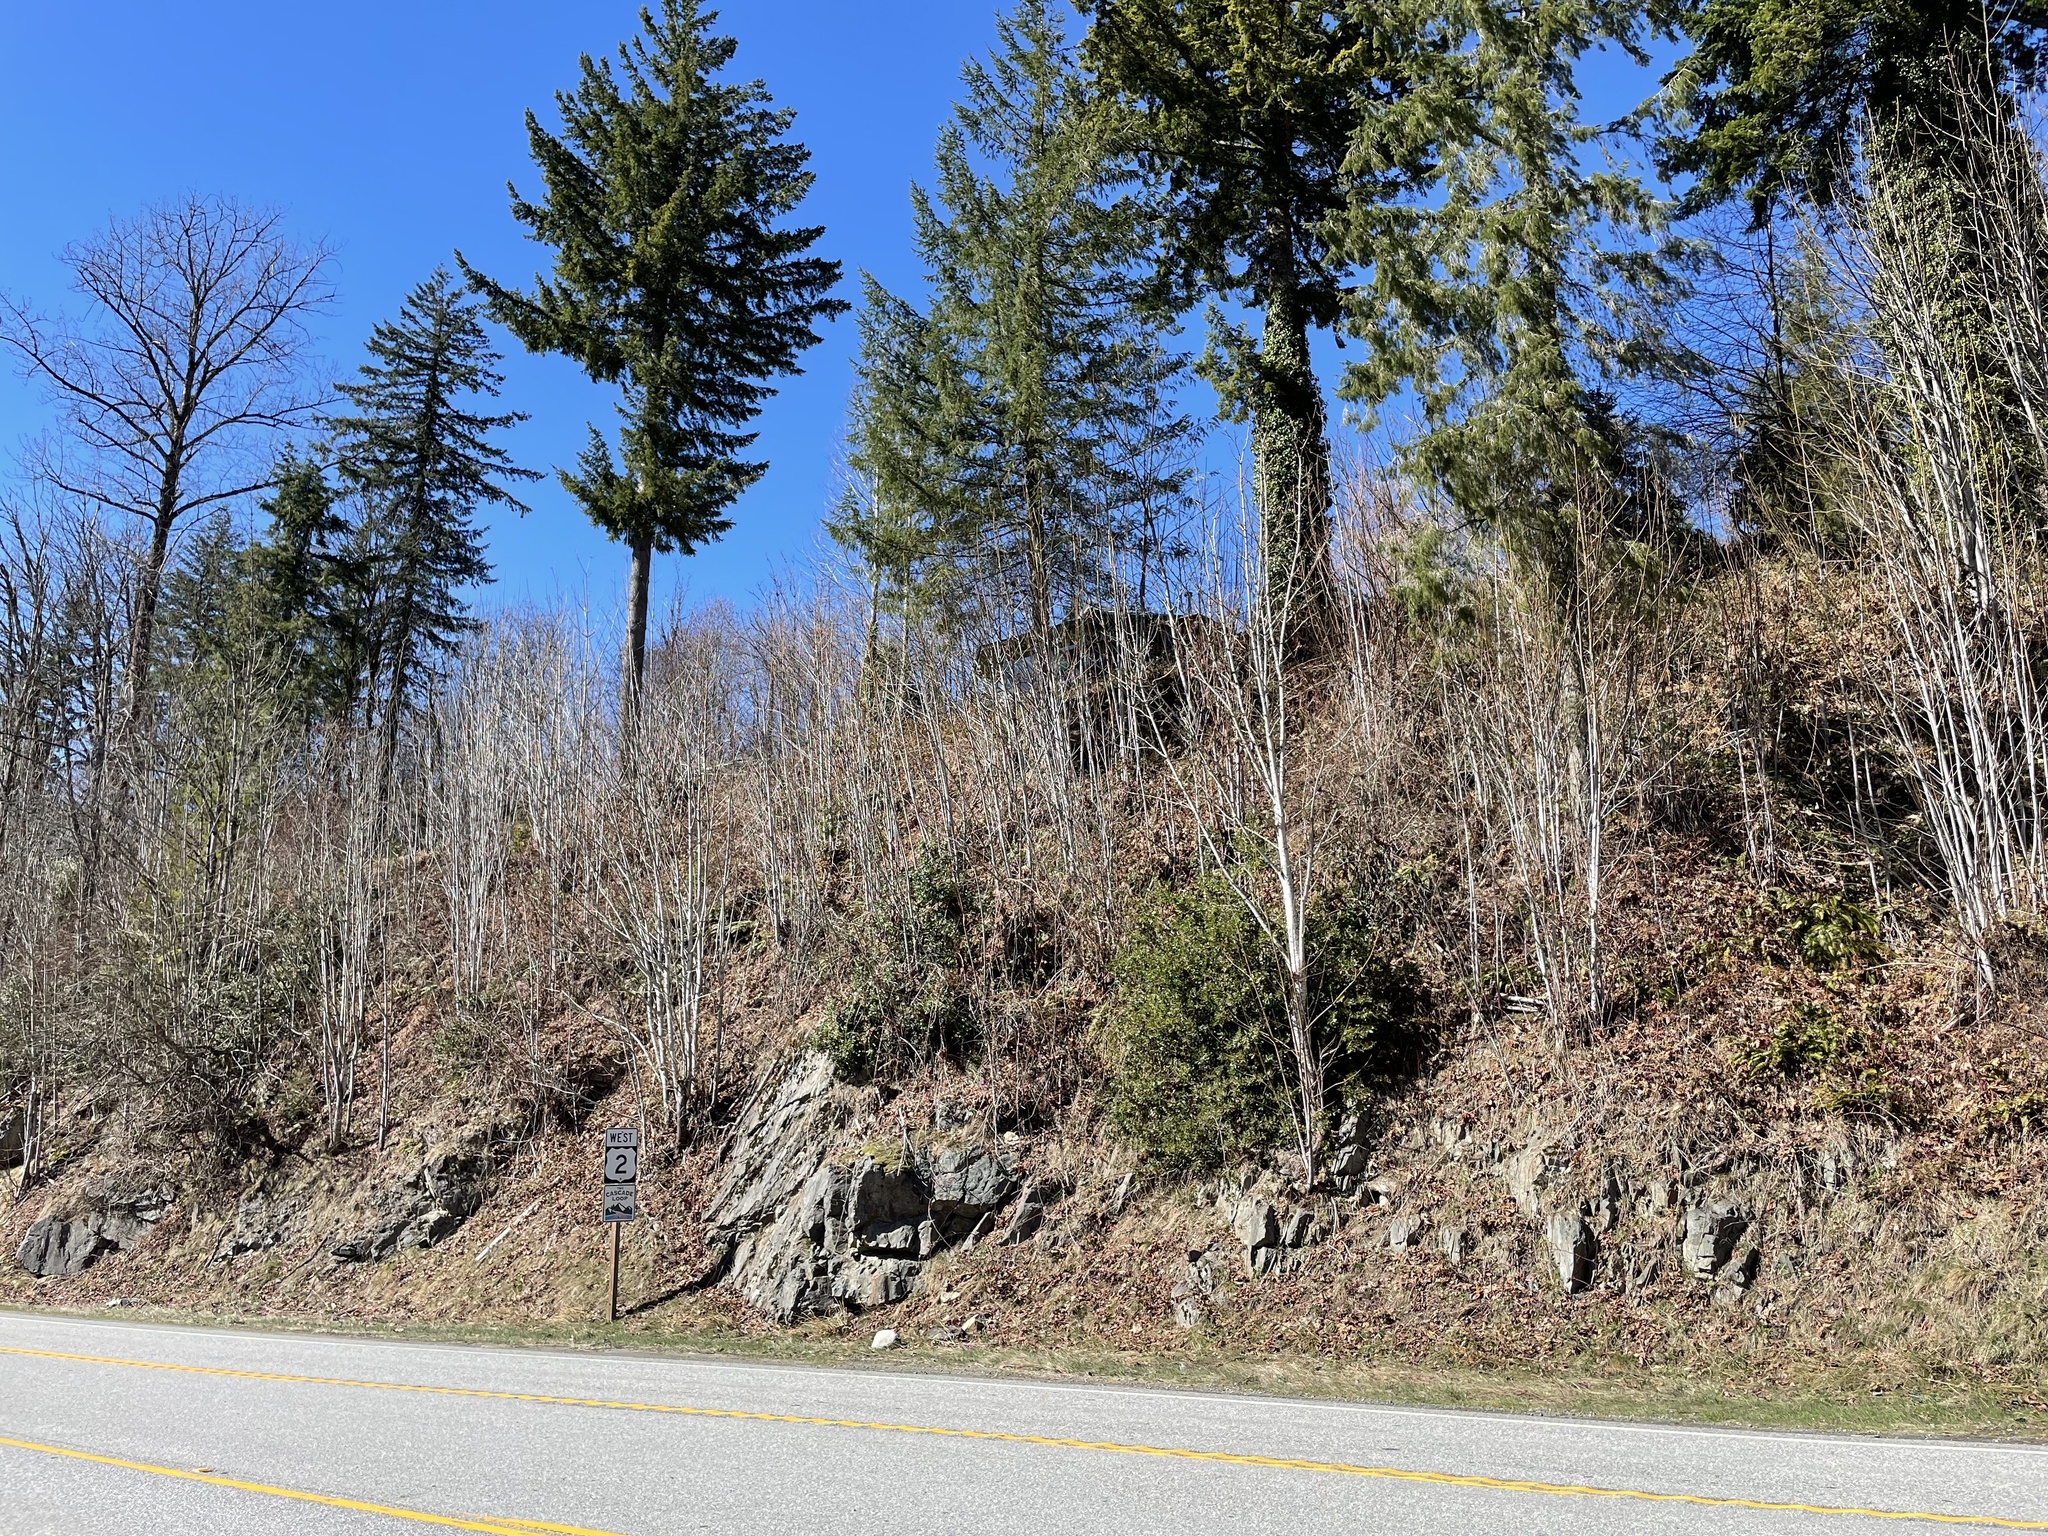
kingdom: Plantae
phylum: Tracheophyta
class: Magnoliopsida
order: Aquifoliales
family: Aquifoliaceae
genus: Ilex
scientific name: Ilex aquifolium
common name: English holly
